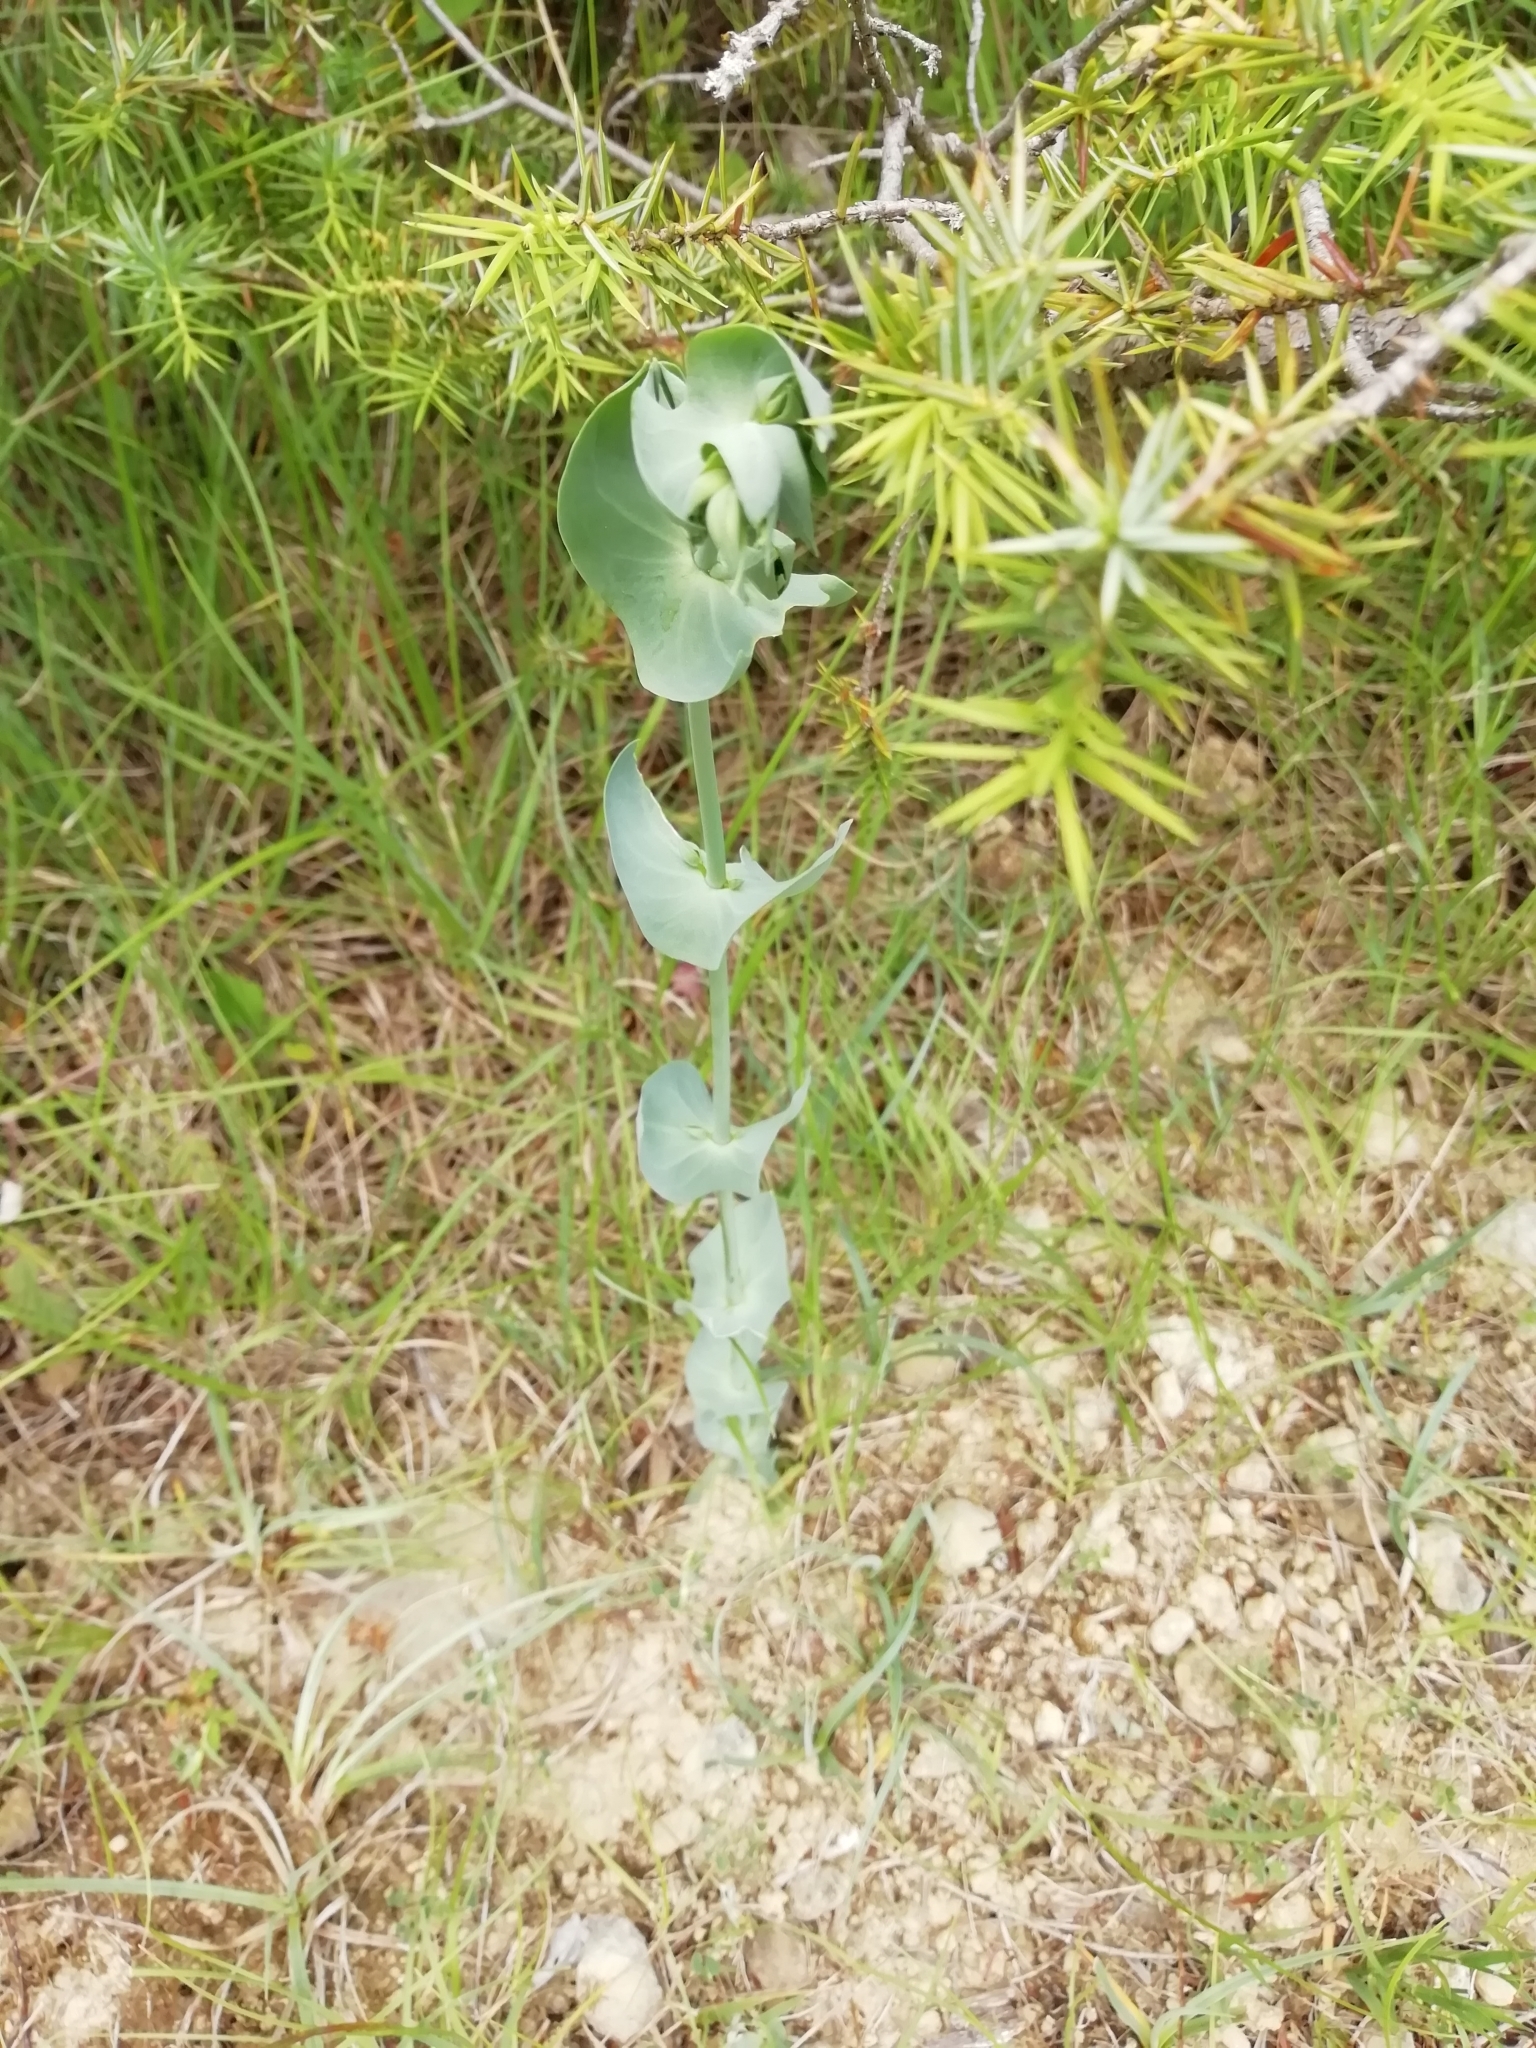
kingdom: Plantae
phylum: Tracheophyta
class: Magnoliopsida
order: Gentianales
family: Gentianaceae
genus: Blackstonia
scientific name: Blackstonia perfoliata
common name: Yellow-wort
